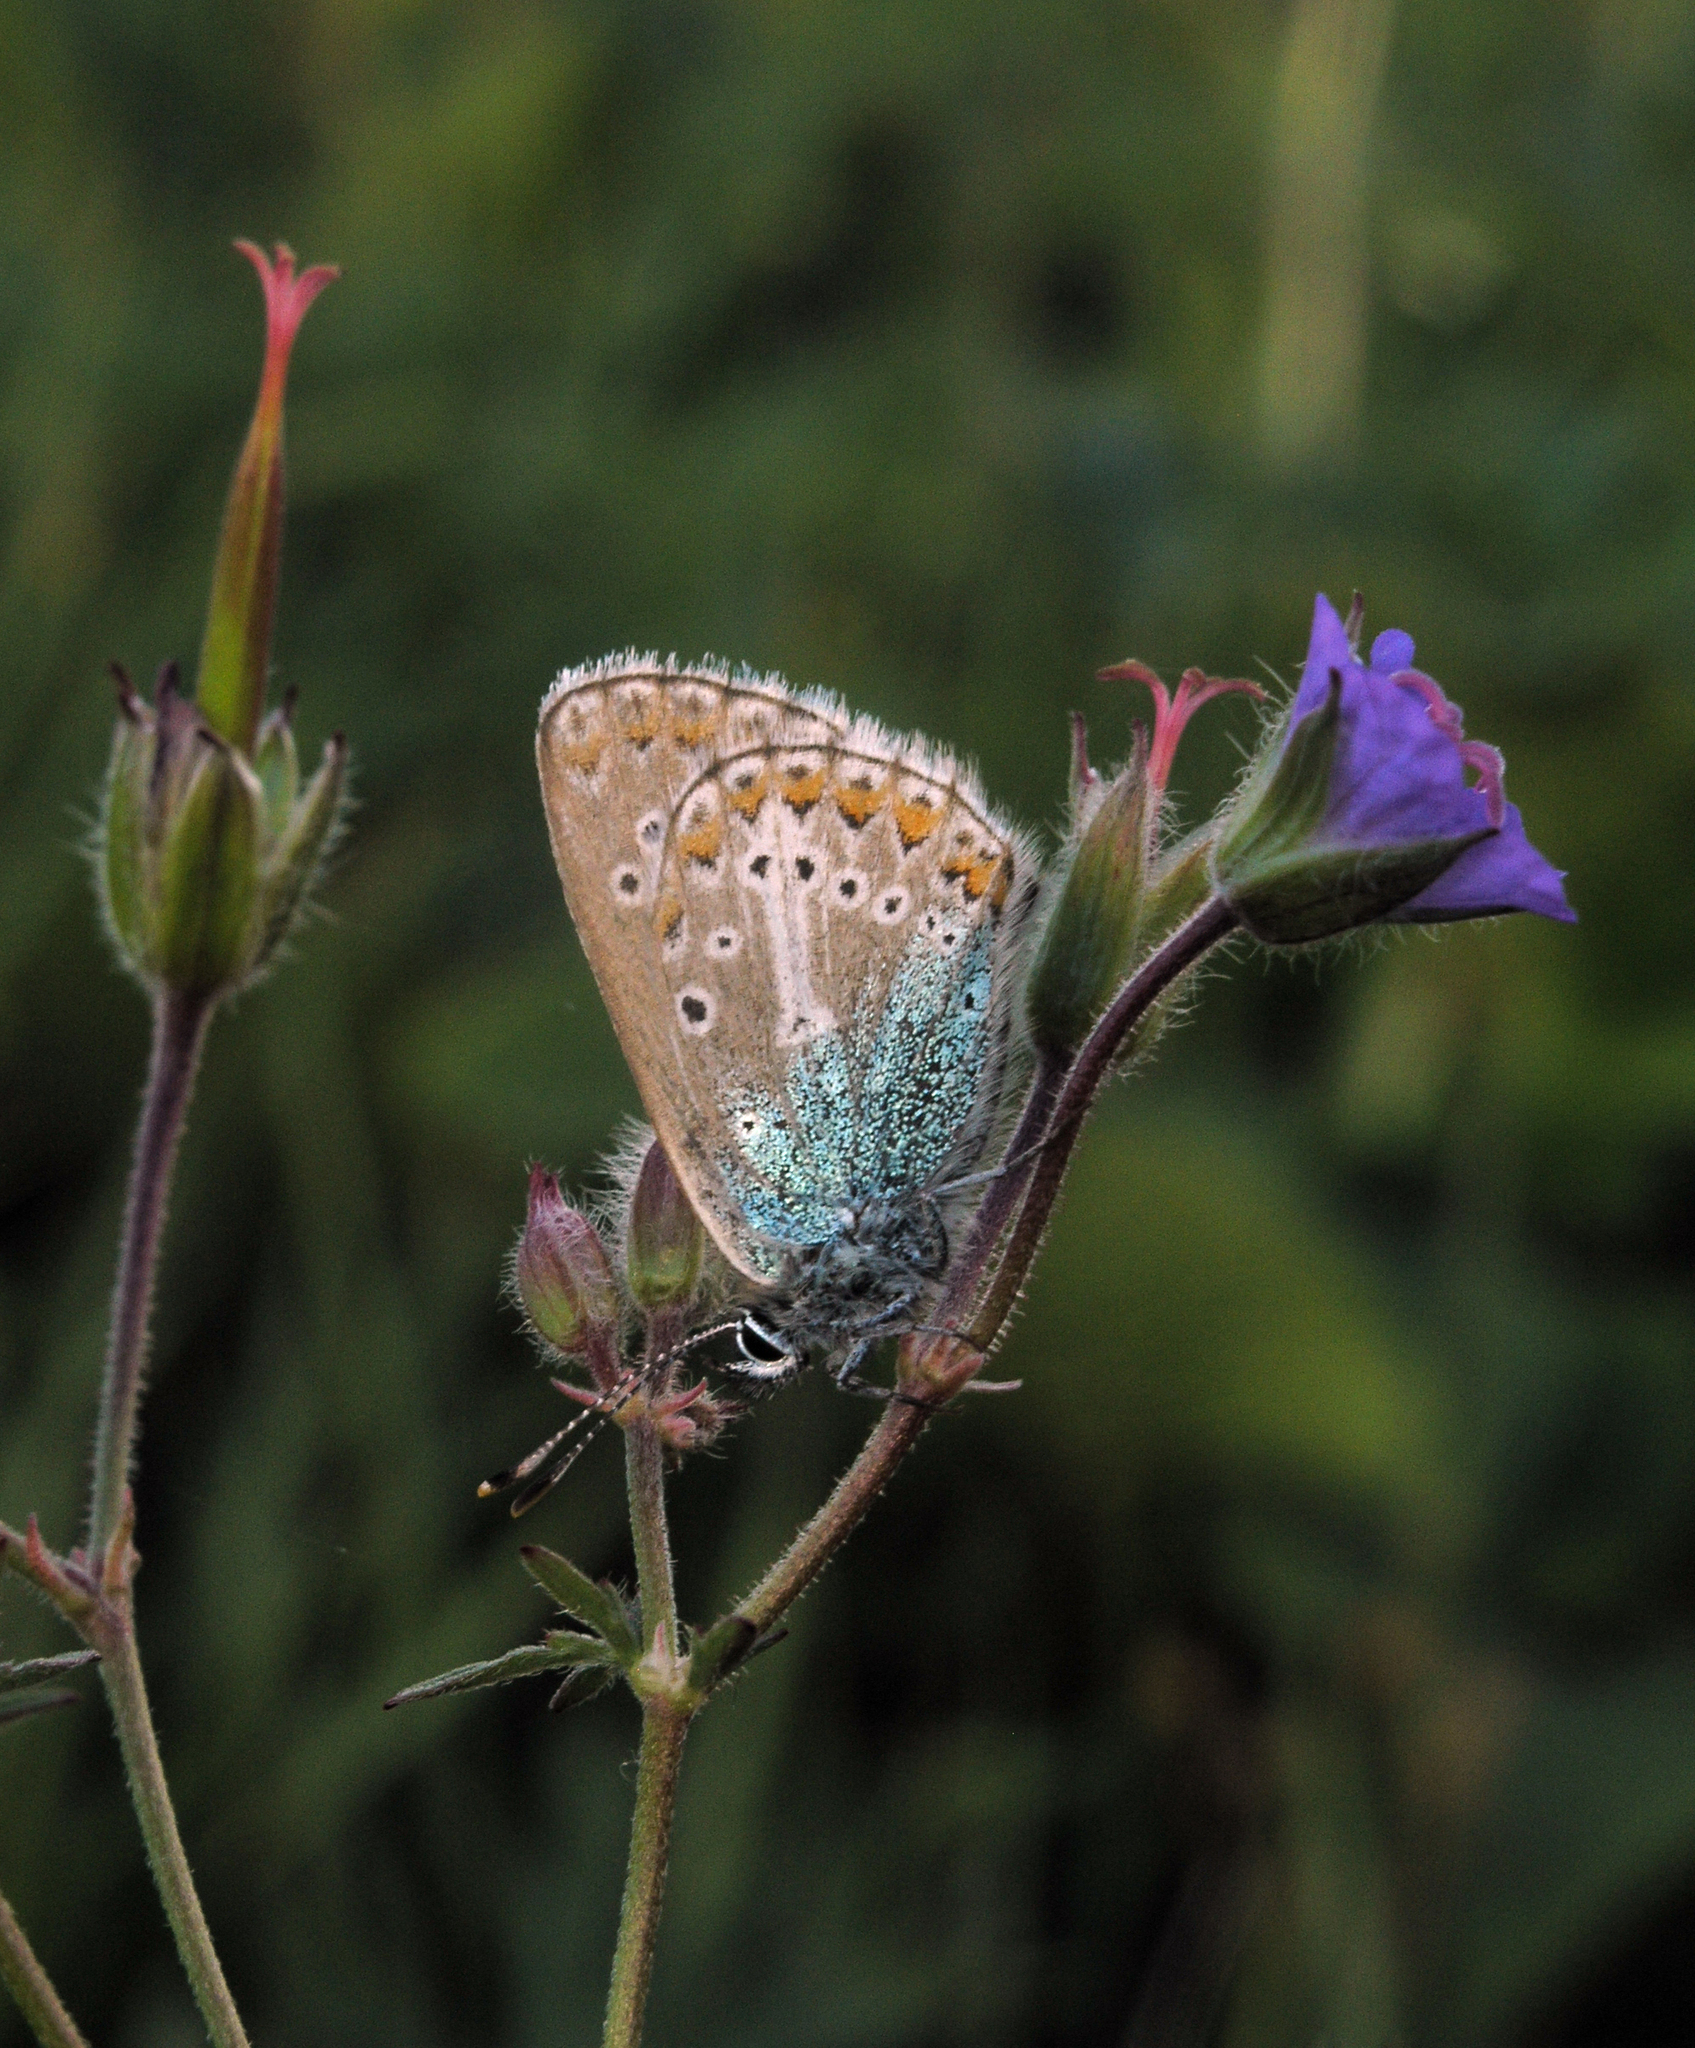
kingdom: Animalia
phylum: Arthropoda
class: Insecta
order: Lepidoptera
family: Lycaenidae
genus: Eumedonia
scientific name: Eumedonia eumedon
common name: Geranium argus
